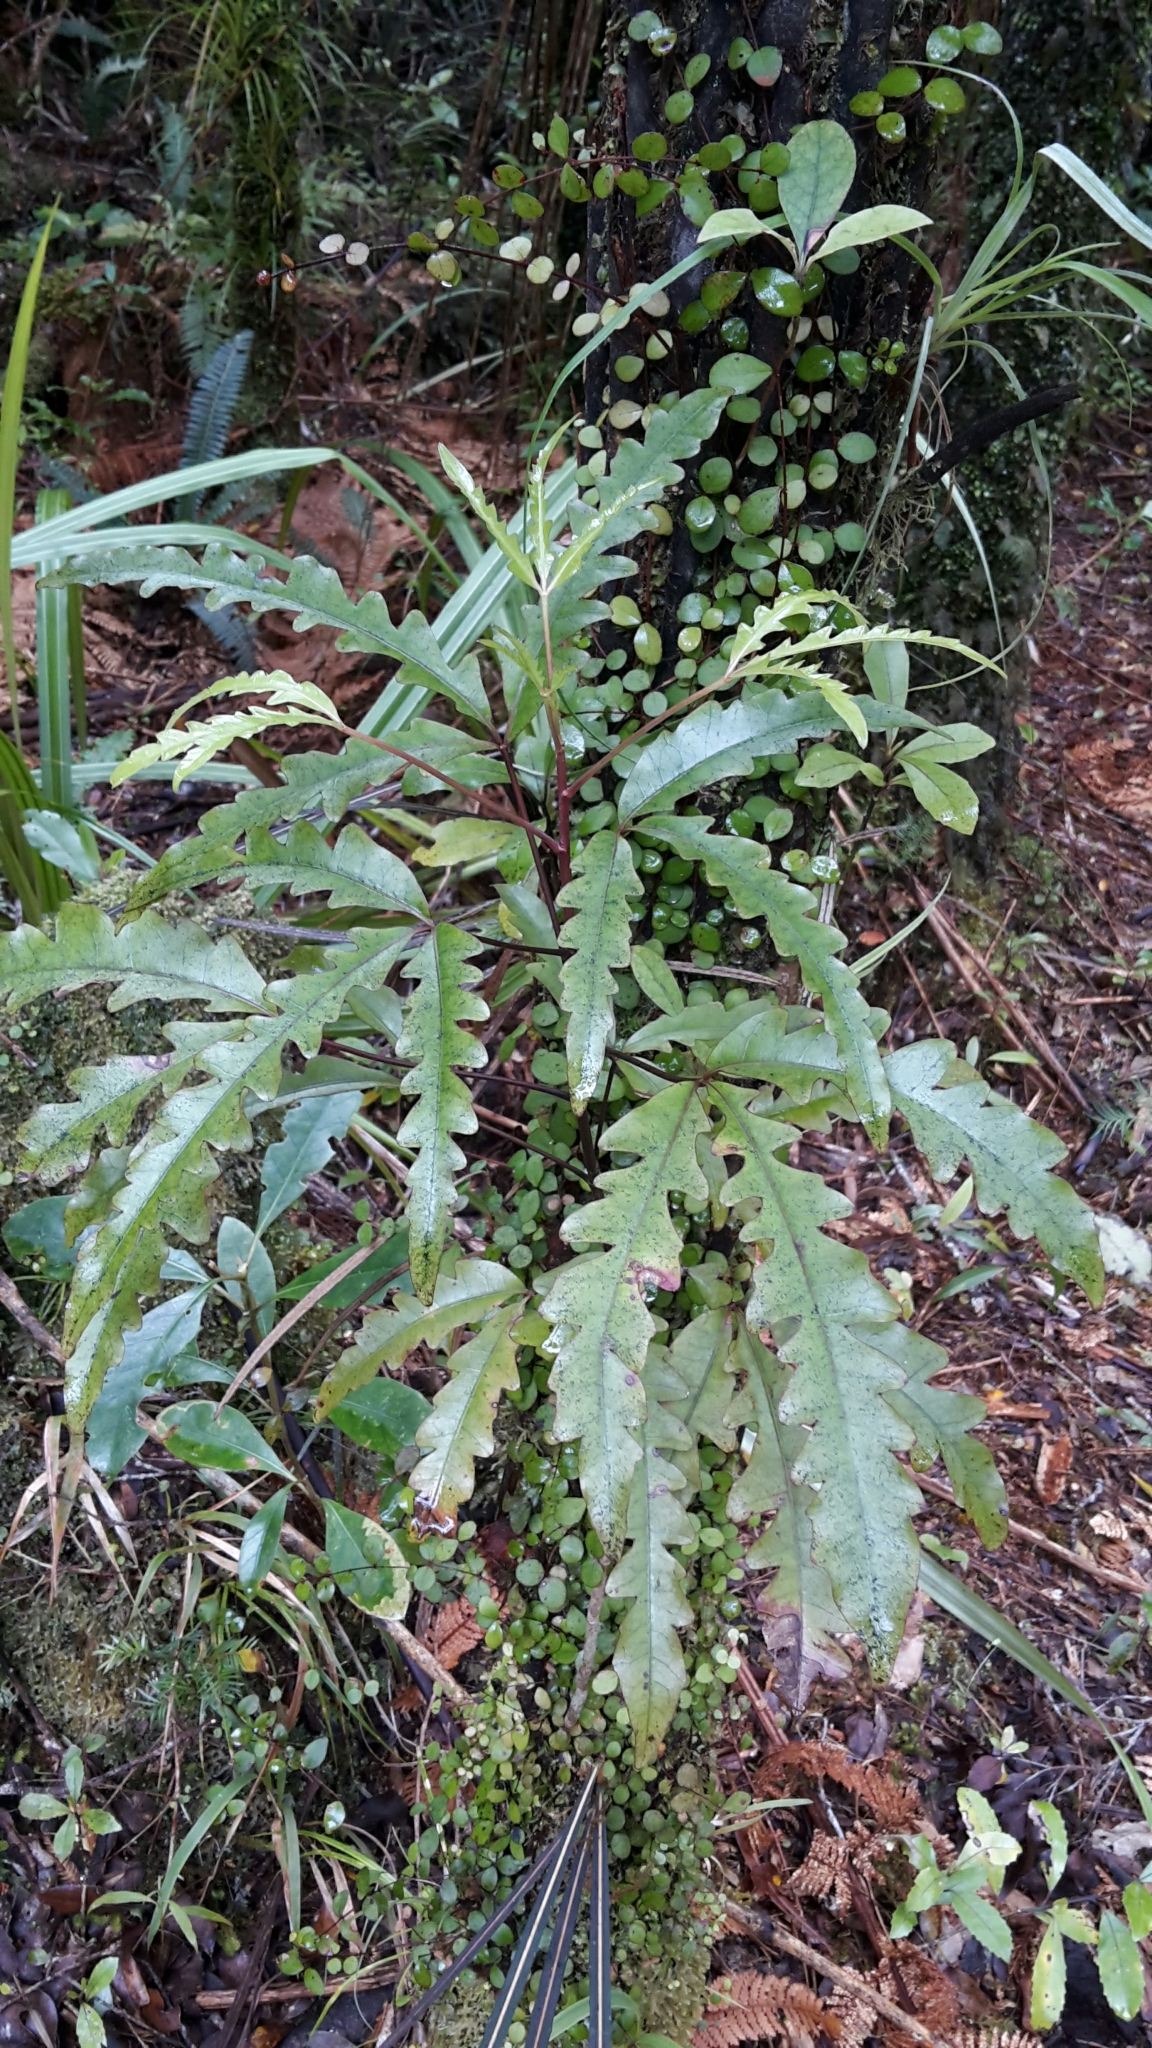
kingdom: Plantae
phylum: Tracheophyta
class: Magnoliopsida
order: Apiales
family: Araliaceae
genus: Raukaua
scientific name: Raukaua edgerleyi
